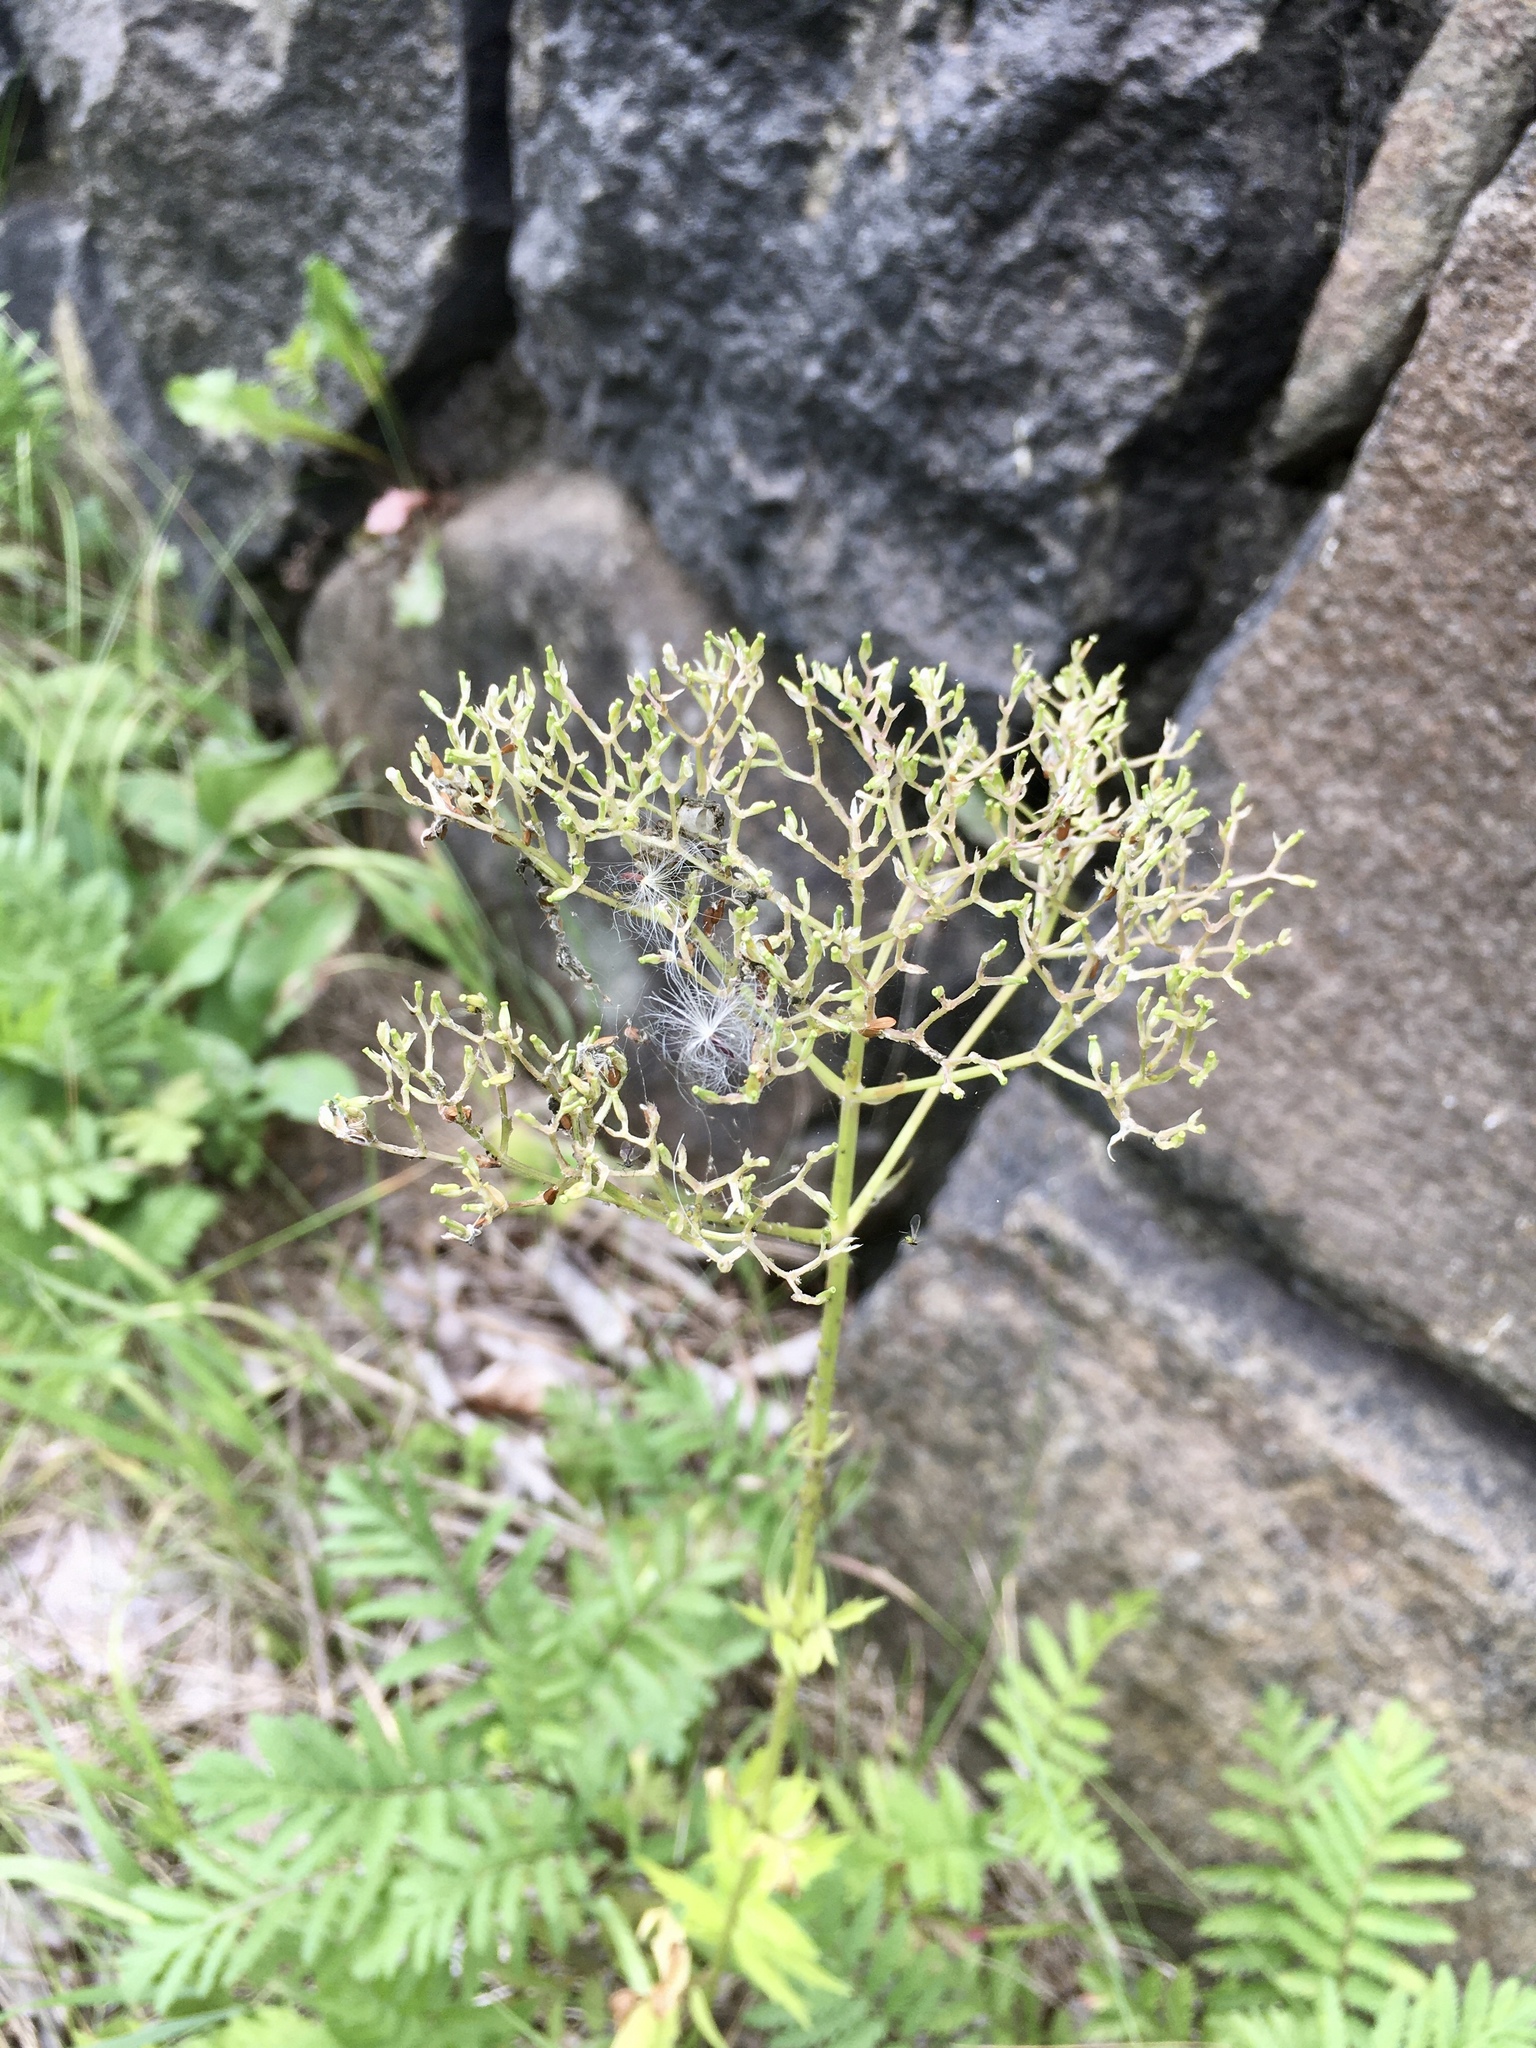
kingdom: Plantae
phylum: Tracheophyta
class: Magnoliopsida
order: Dipsacales
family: Caprifoliaceae
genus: Valeriana
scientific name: Valeriana officinalis
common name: Common valerian
